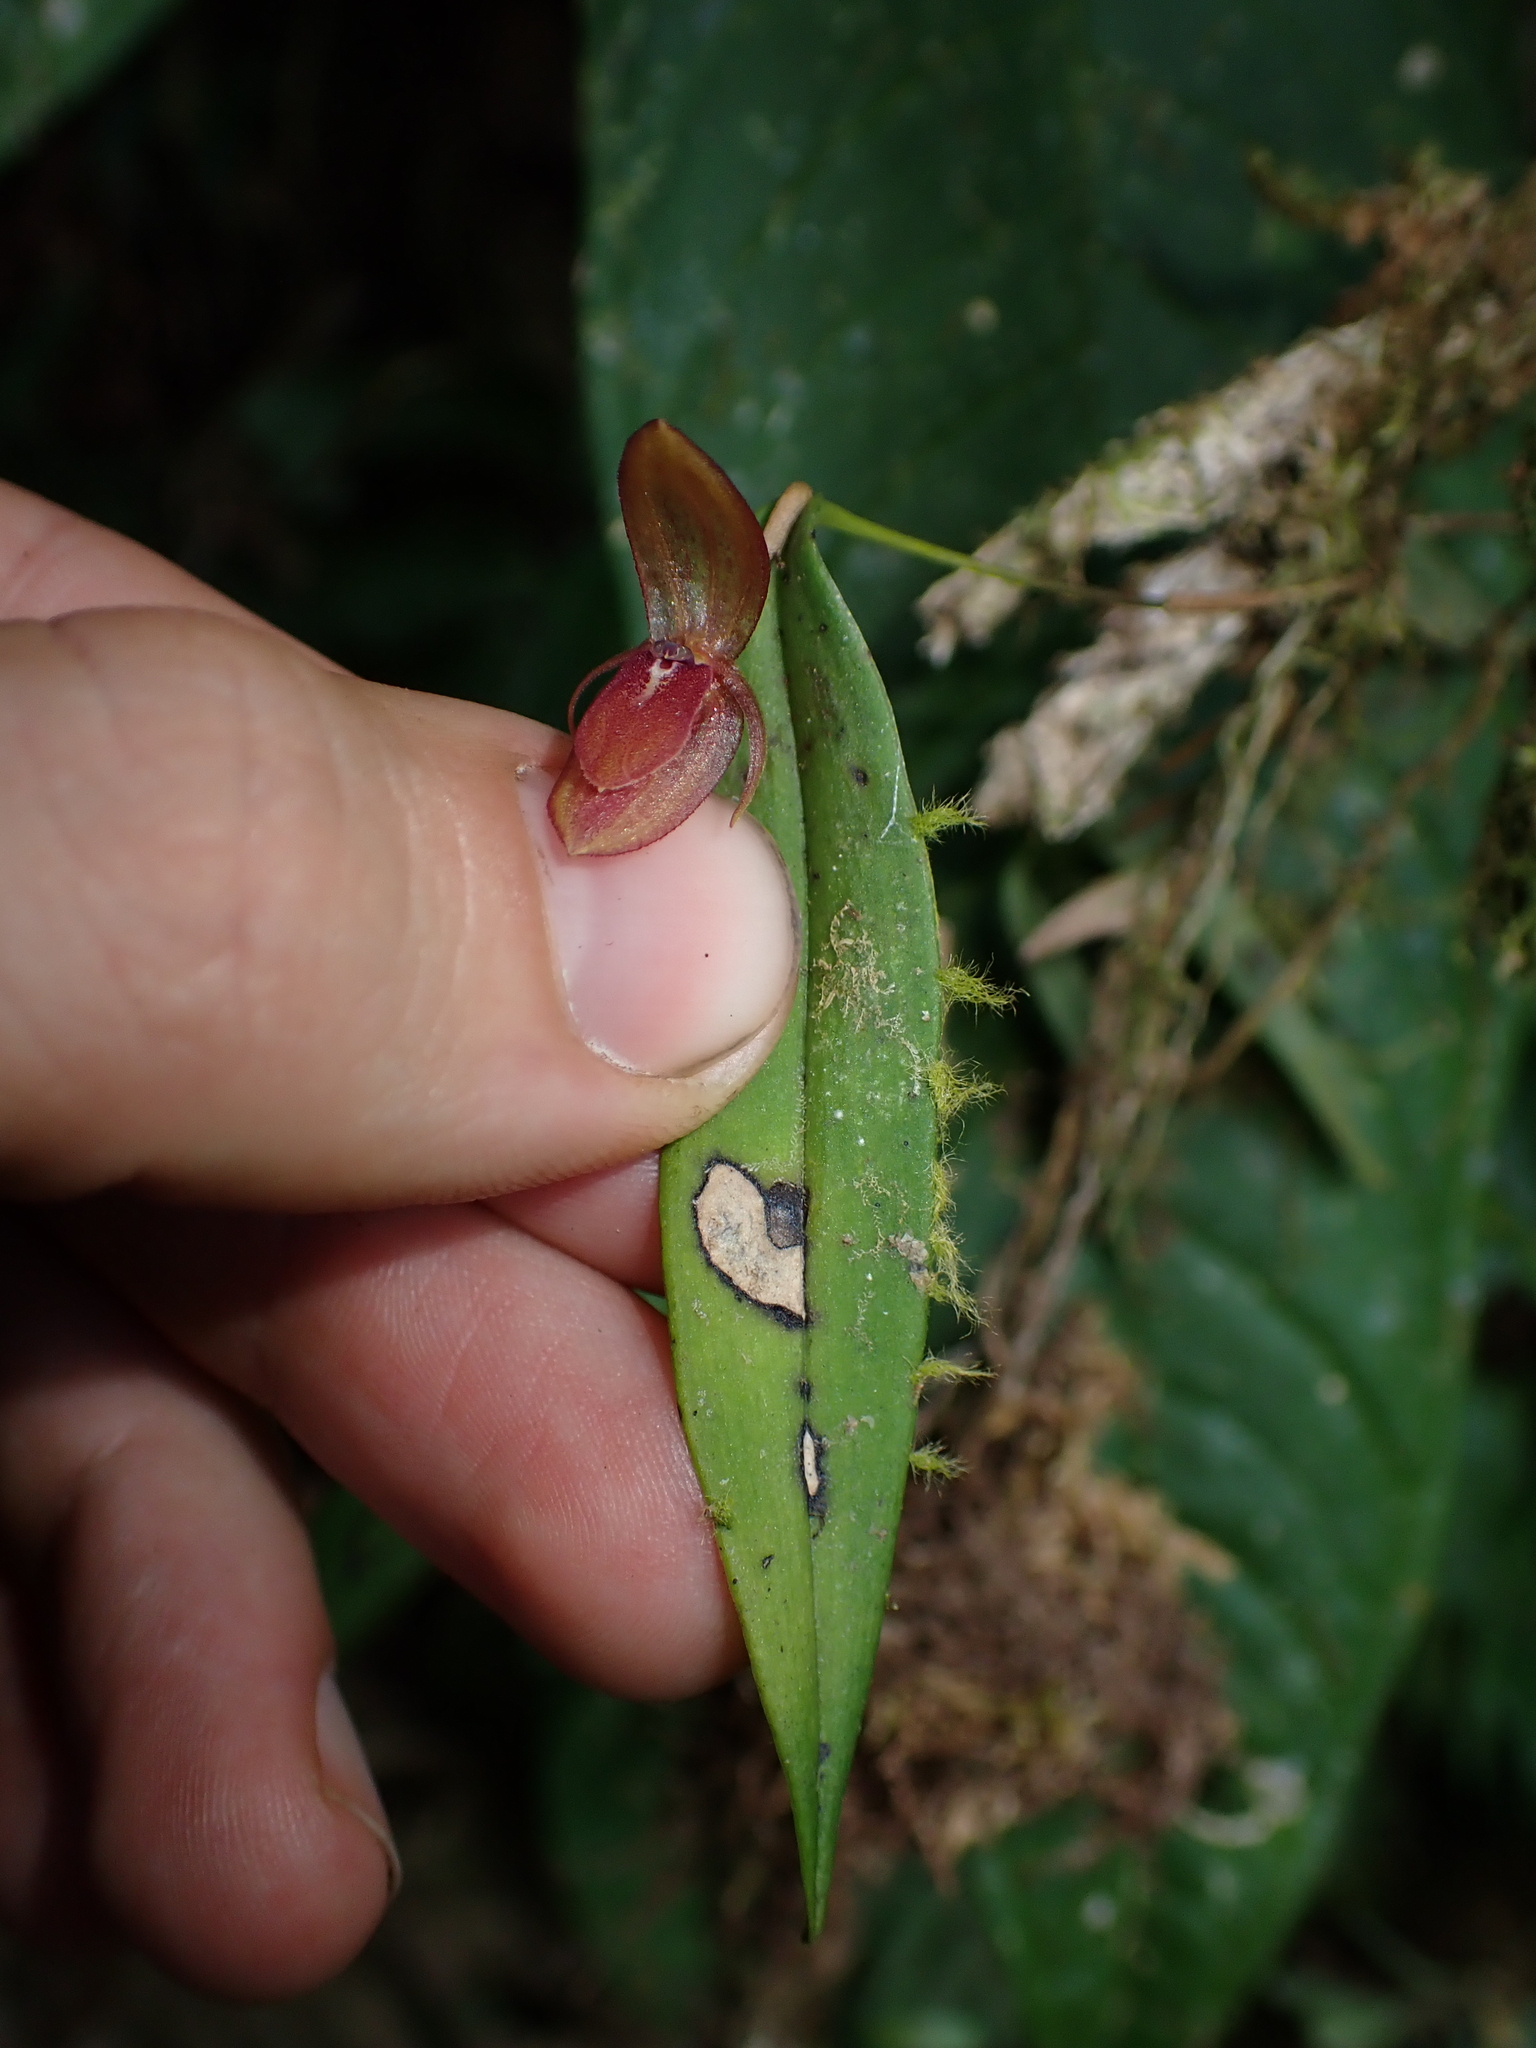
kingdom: Plantae
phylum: Tracheophyta
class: Liliopsida
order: Asparagales
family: Orchidaceae
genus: Pleurothallis
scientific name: Pleurothallis megaglossa
